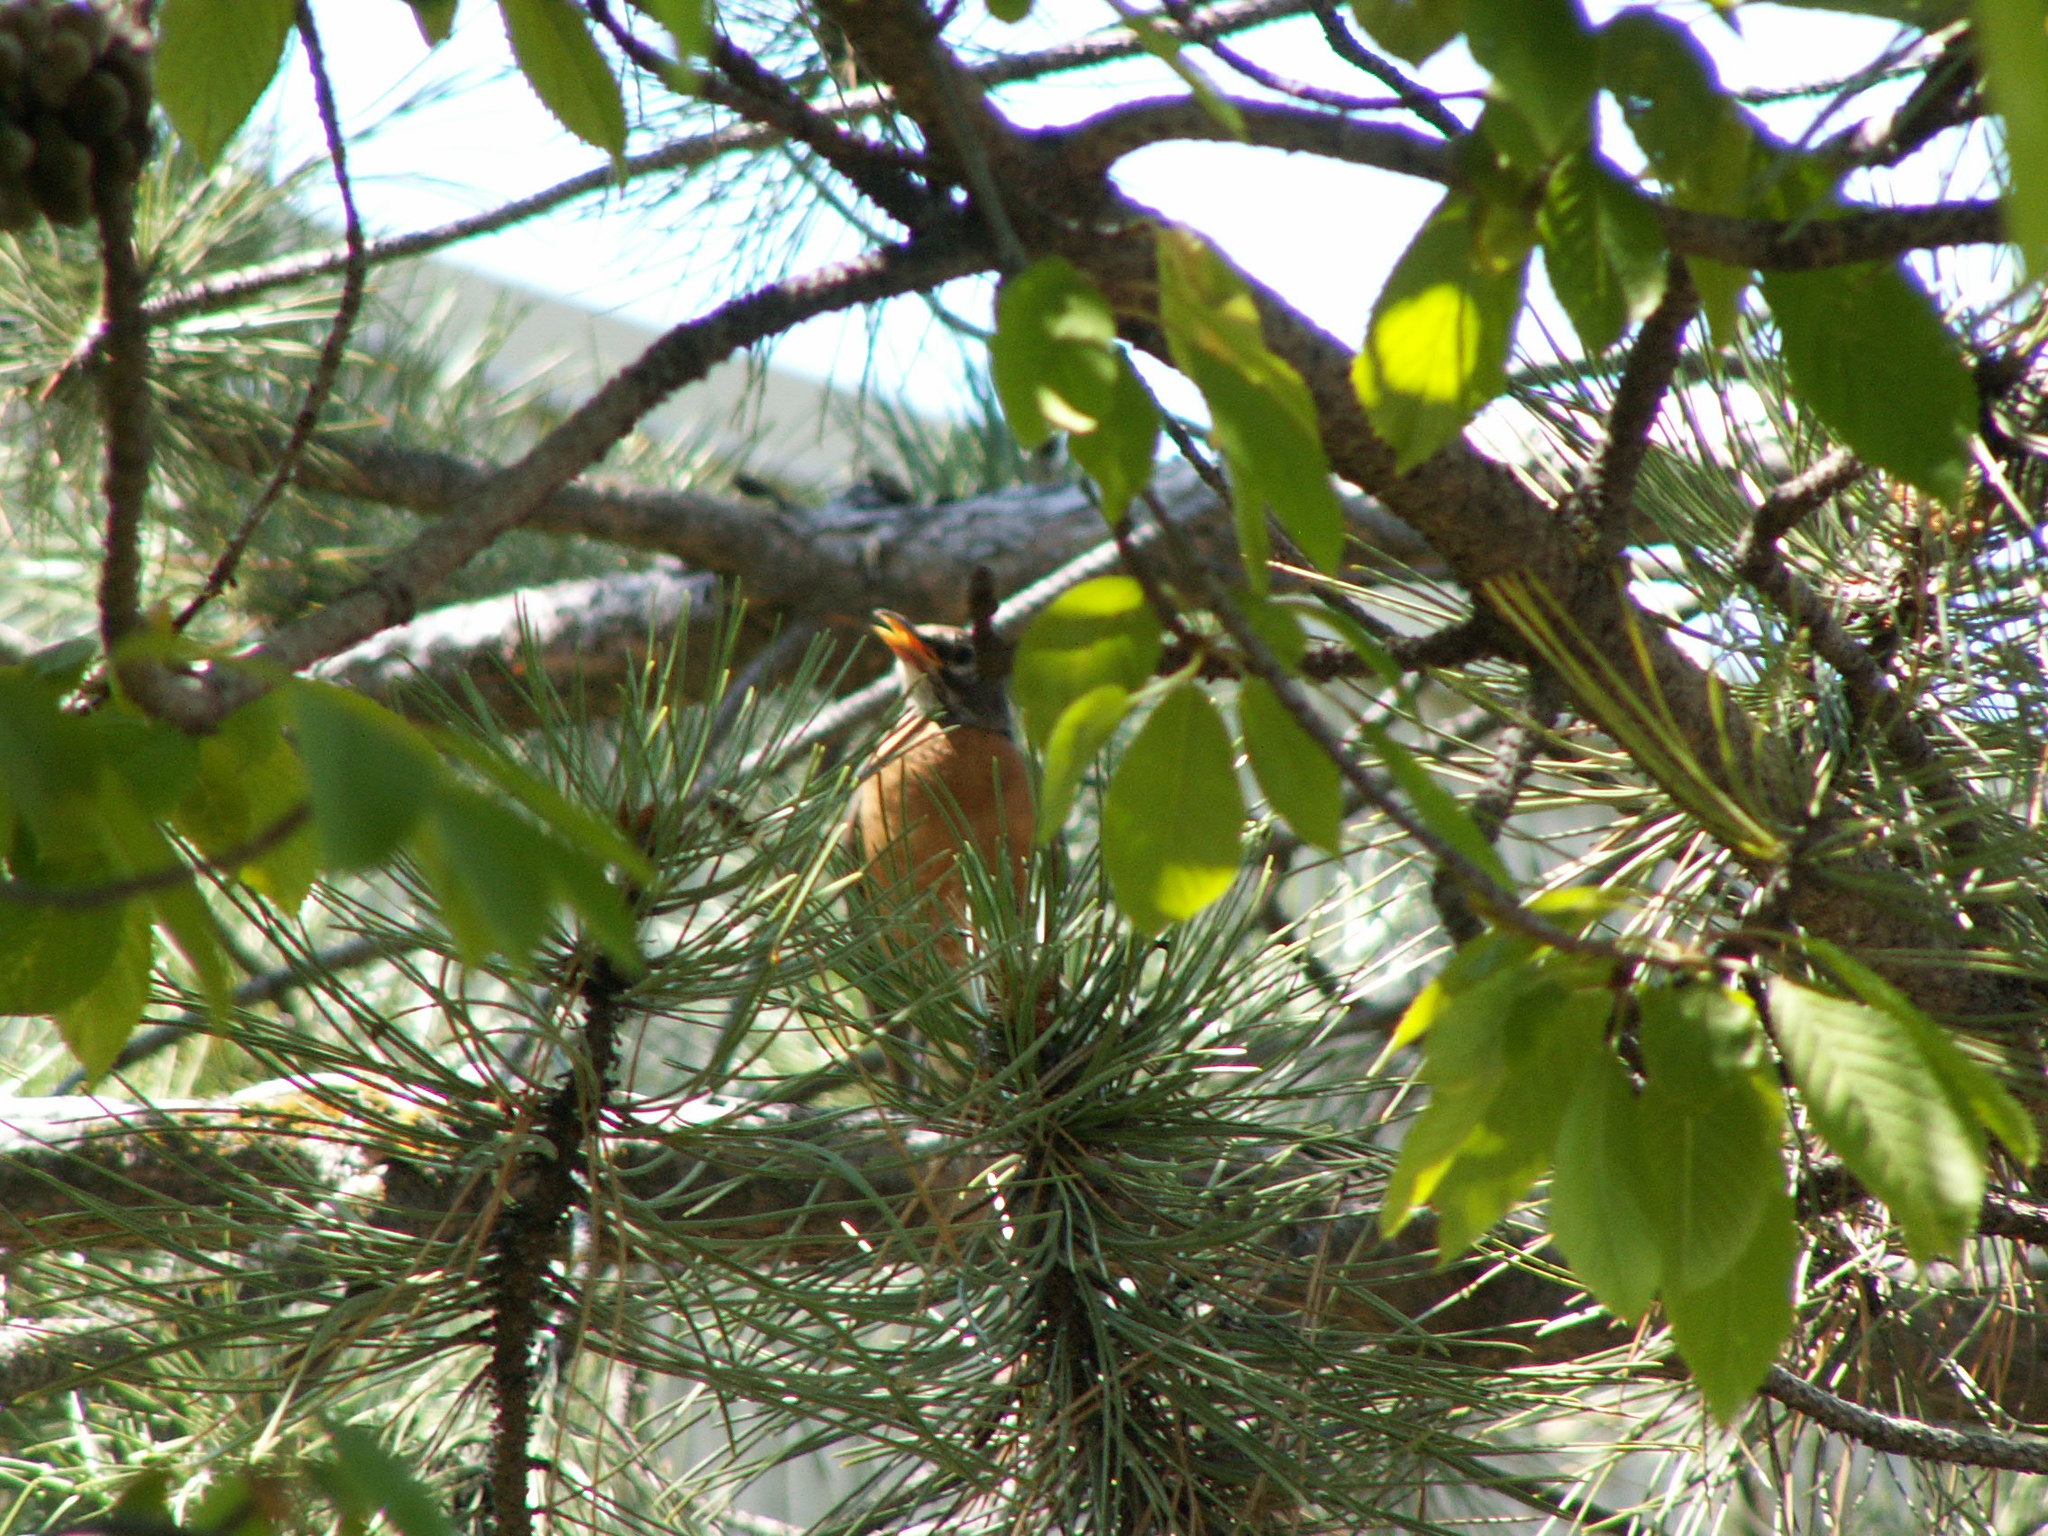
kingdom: Animalia
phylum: Chordata
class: Aves
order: Passeriformes
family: Turdidae
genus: Turdus
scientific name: Turdus migratorius
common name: American robin
